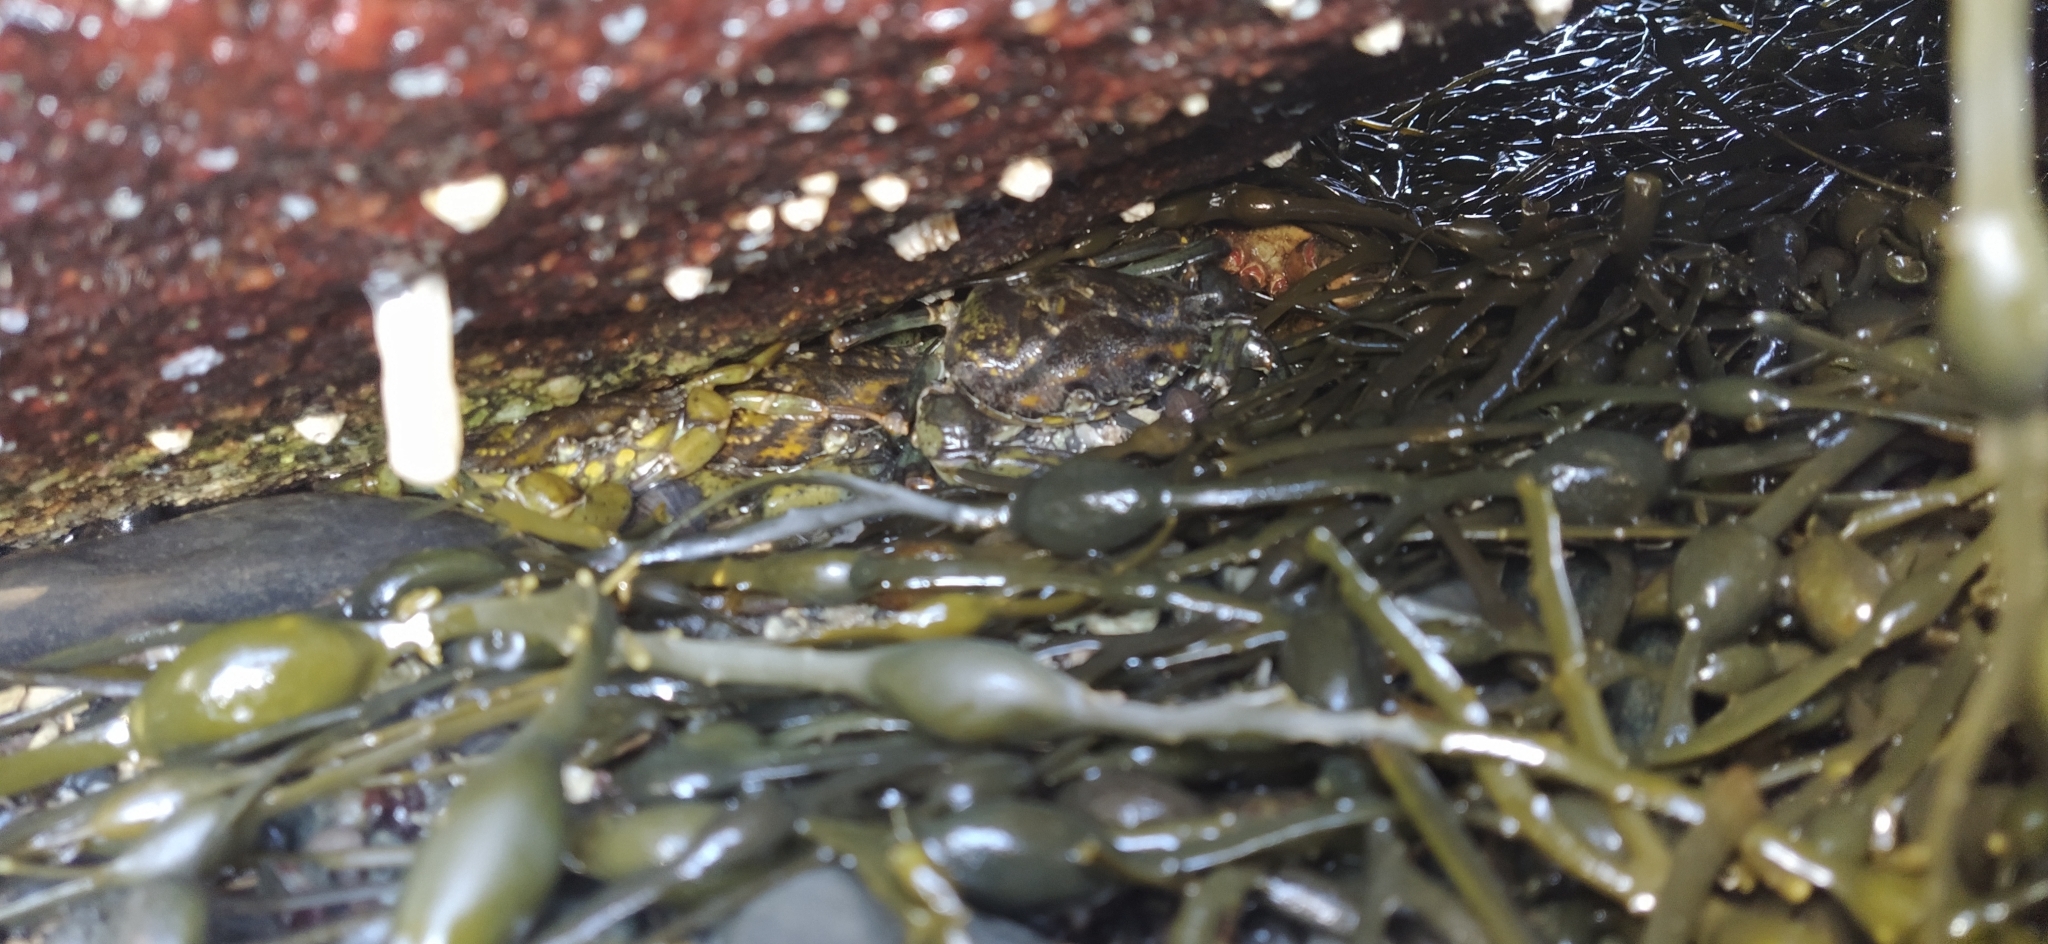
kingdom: Animalia
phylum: Arthropoda
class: Malacostraca
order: Decapoda
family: Carcinidae
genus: Carcinus
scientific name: Carcinus maenas
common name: European green crab
